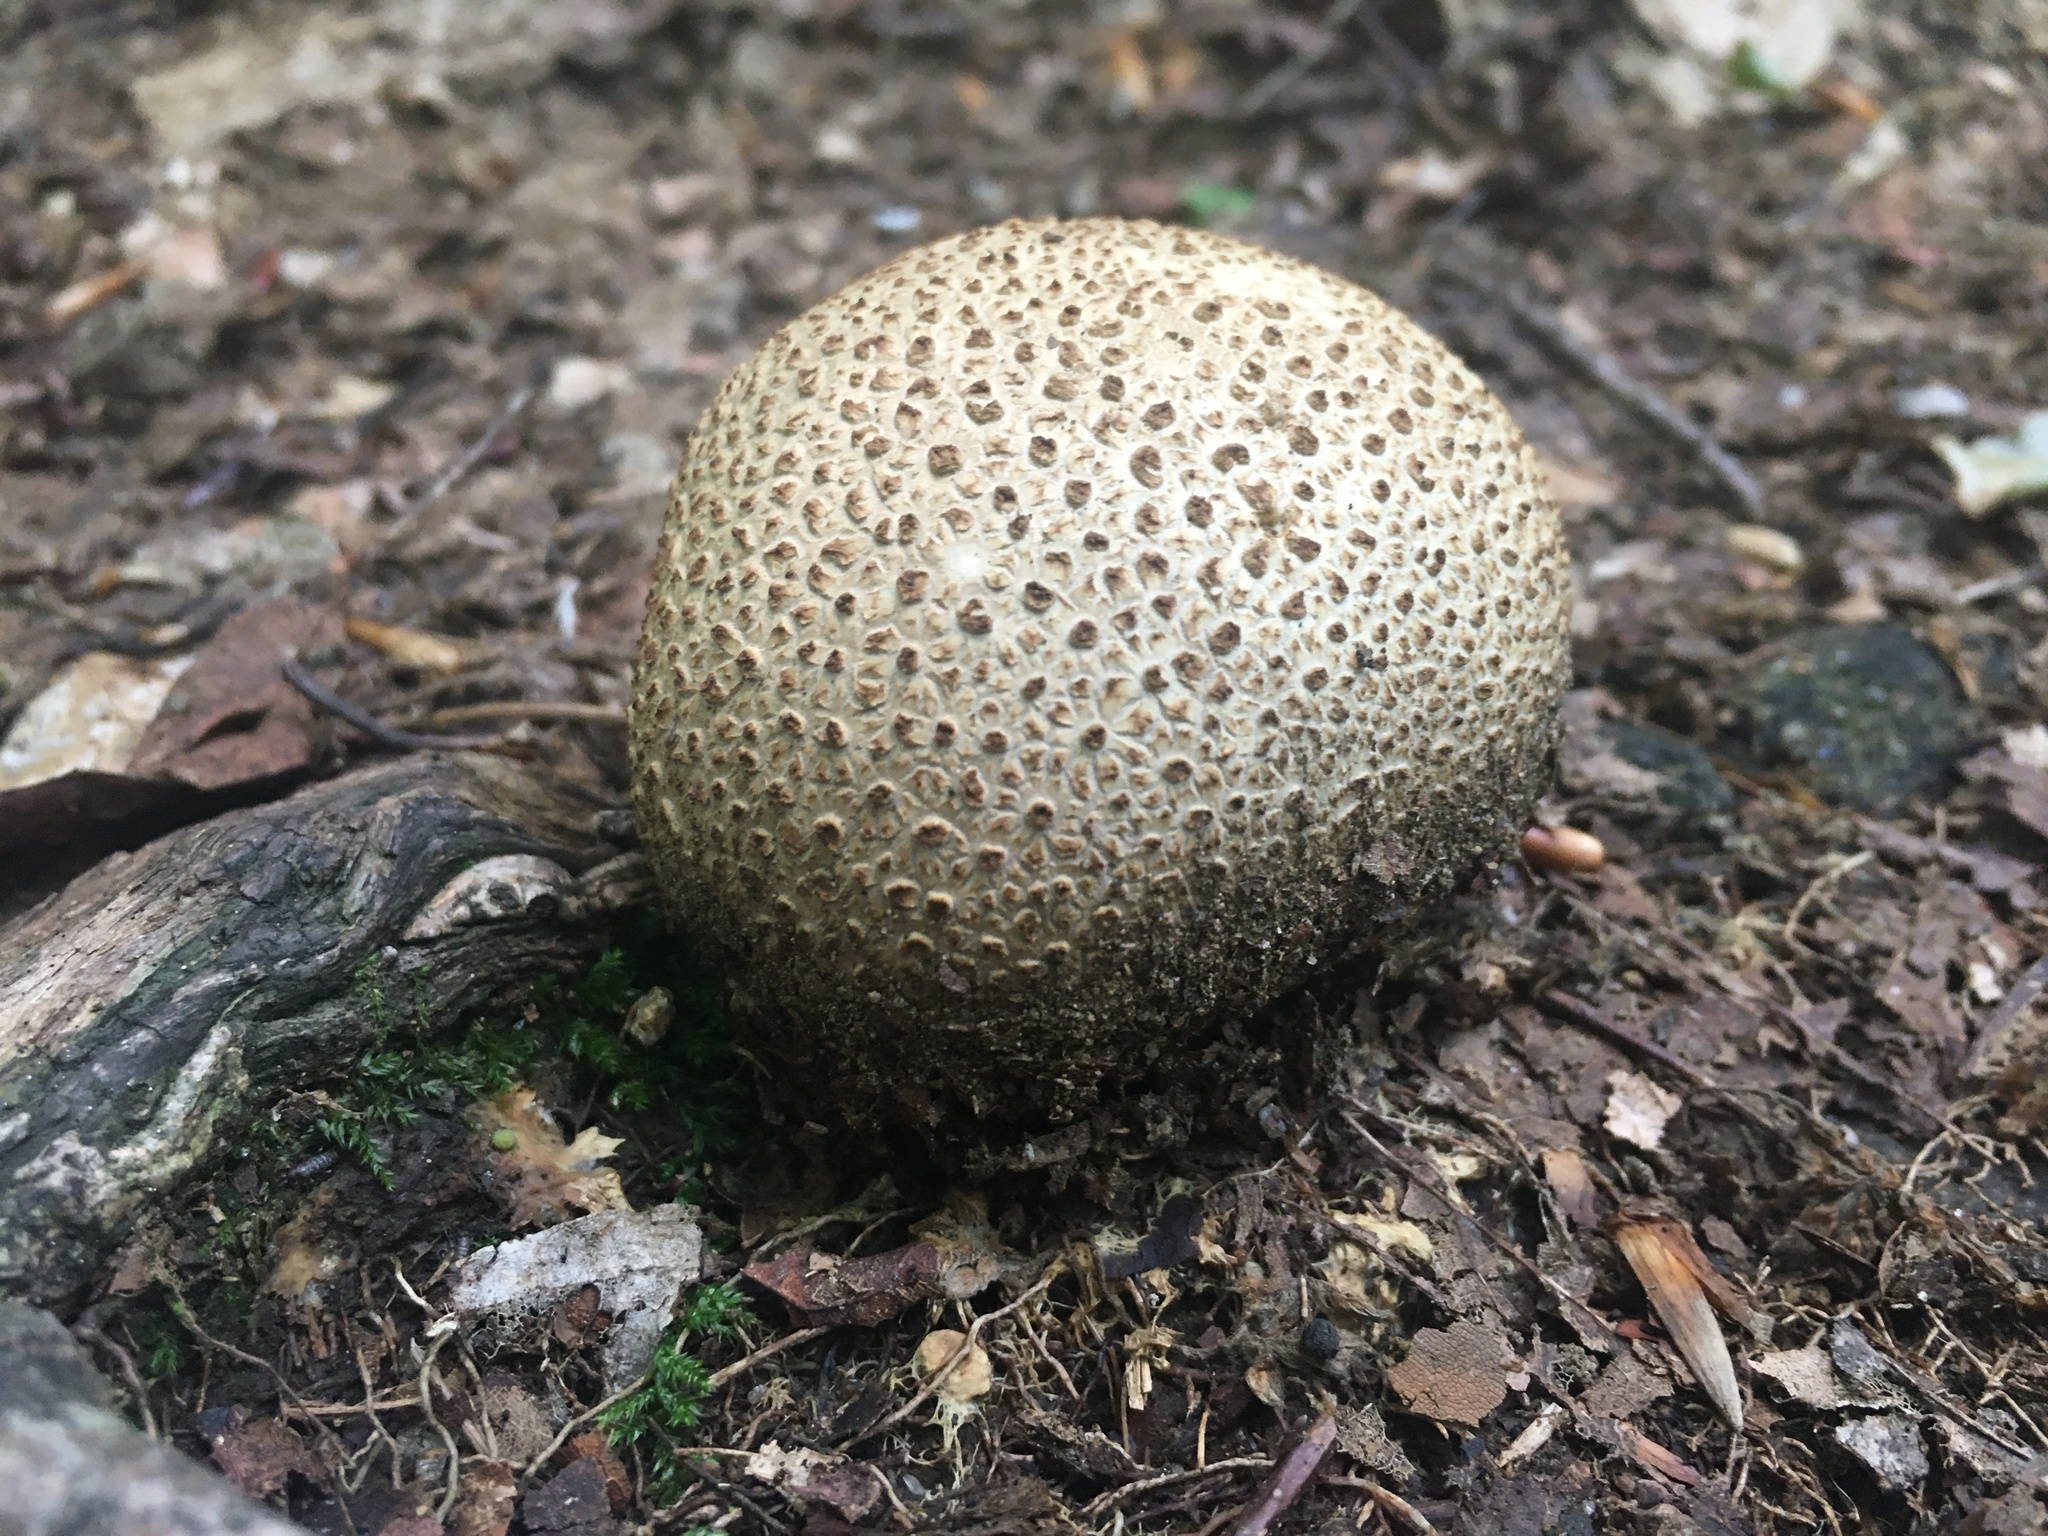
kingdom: Fungi
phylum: Basidiomycota
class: Agaricomycetes
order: Boletales
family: Sclerodermataceae
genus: Scleroderma
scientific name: Scleroderma citrinum
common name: Common earthball
